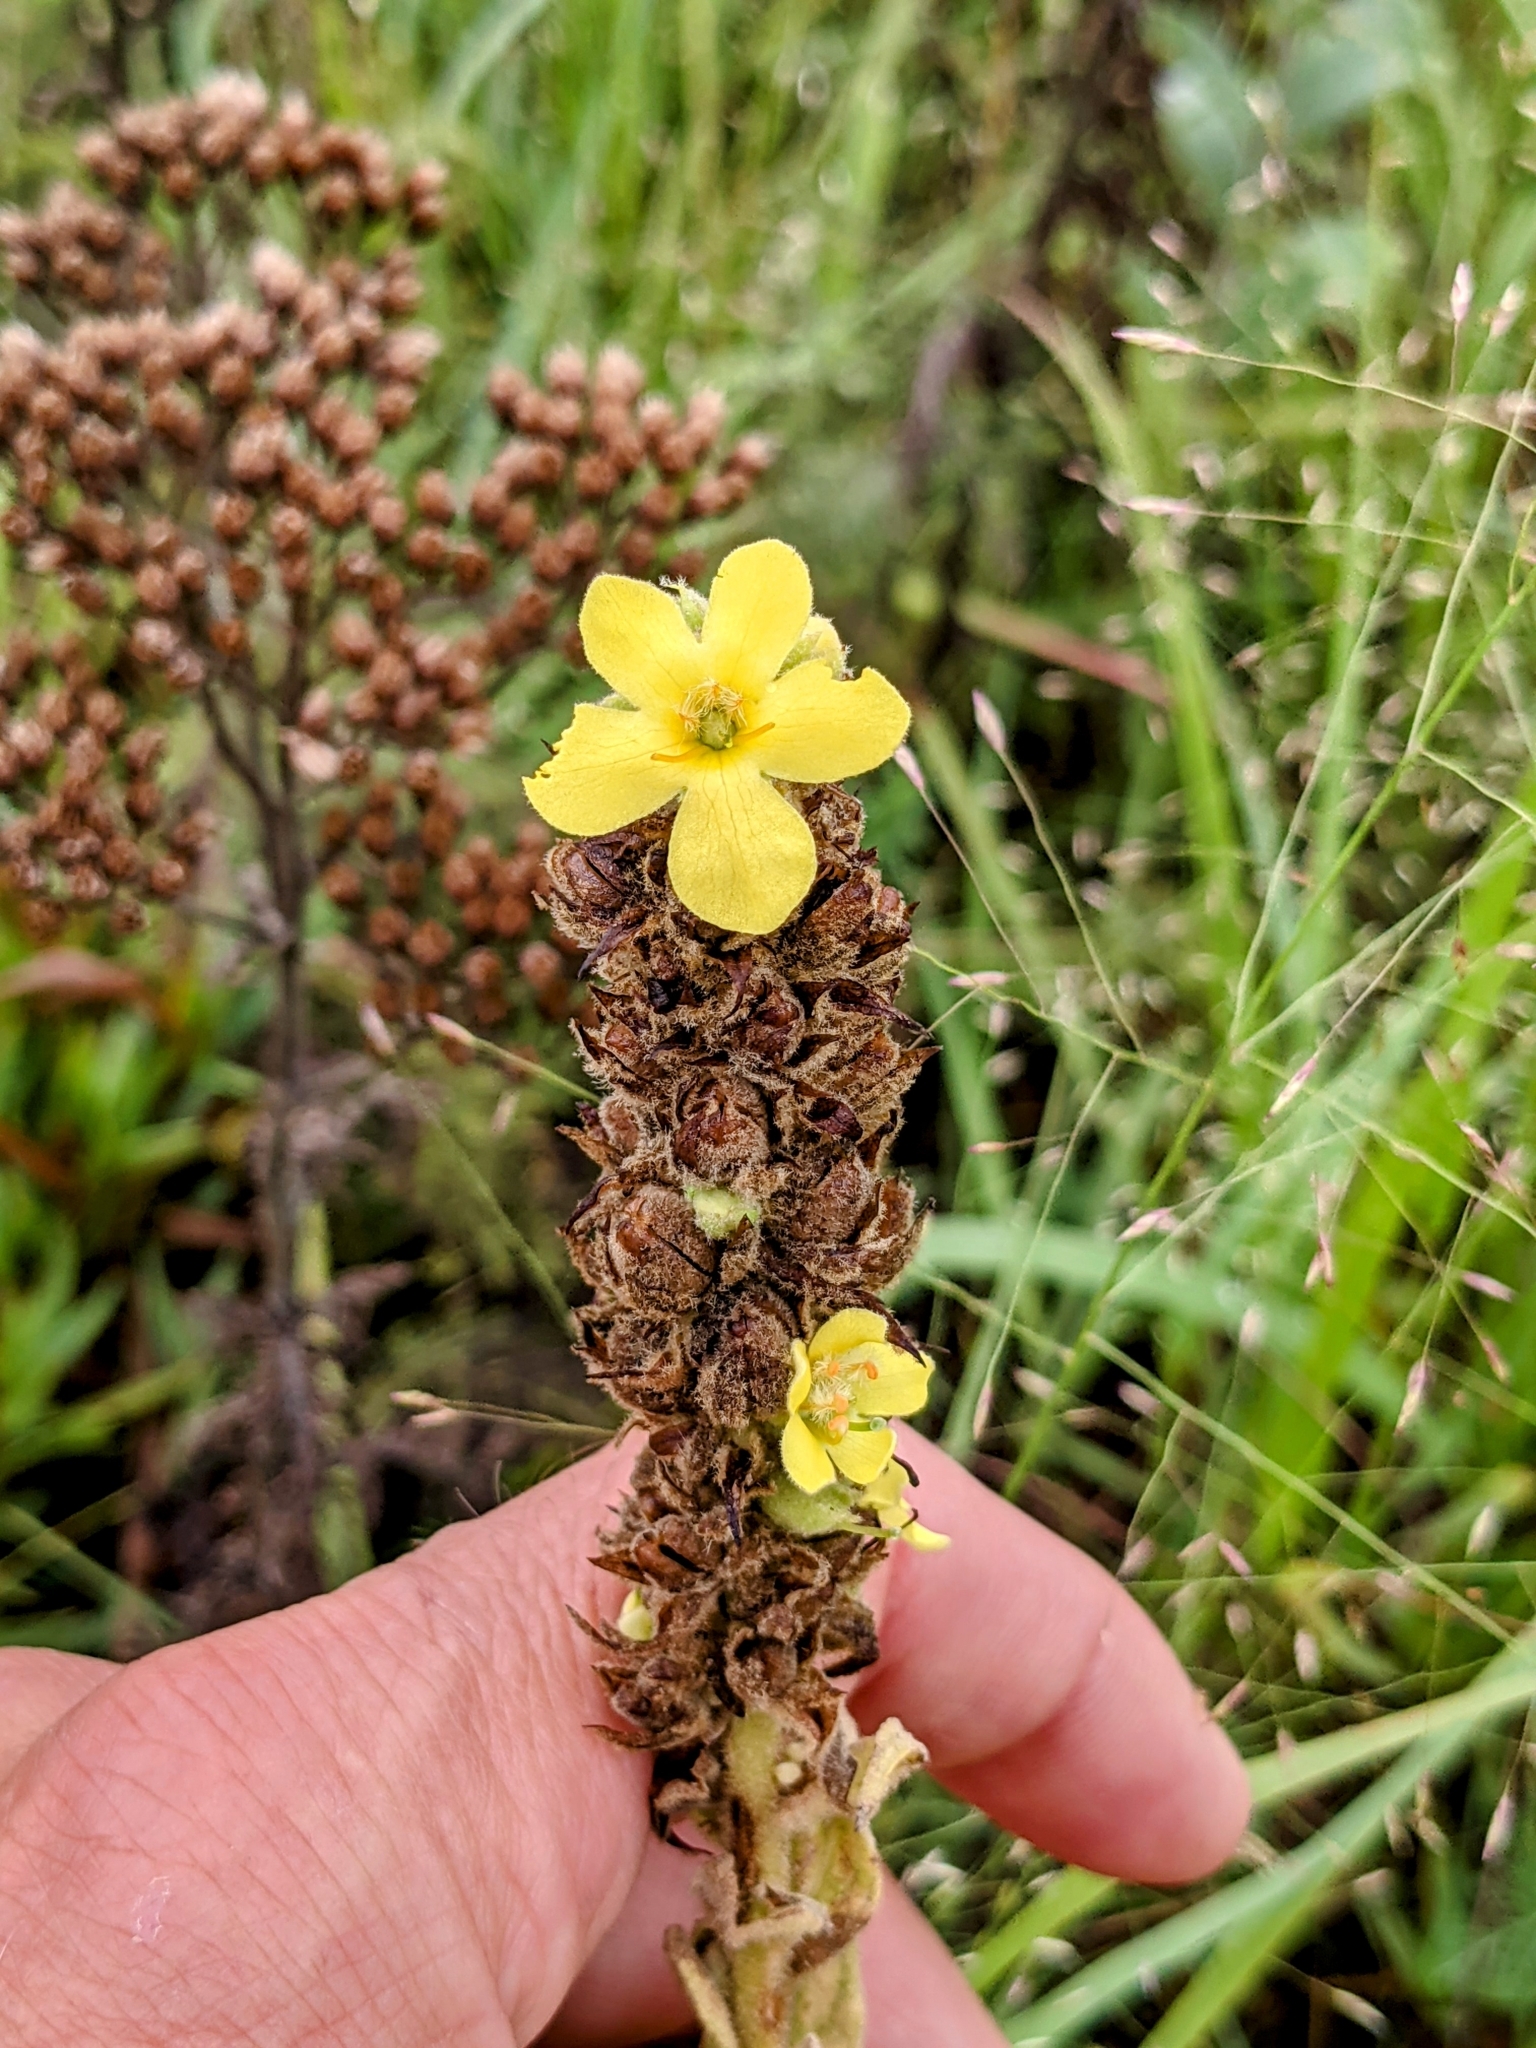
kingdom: Plantae
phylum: Tracheophyta
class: Magnoliopsida
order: Lamiales
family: Scrophulariaceae
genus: Verbascum
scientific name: Verbascum thapsus
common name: Common mullein
